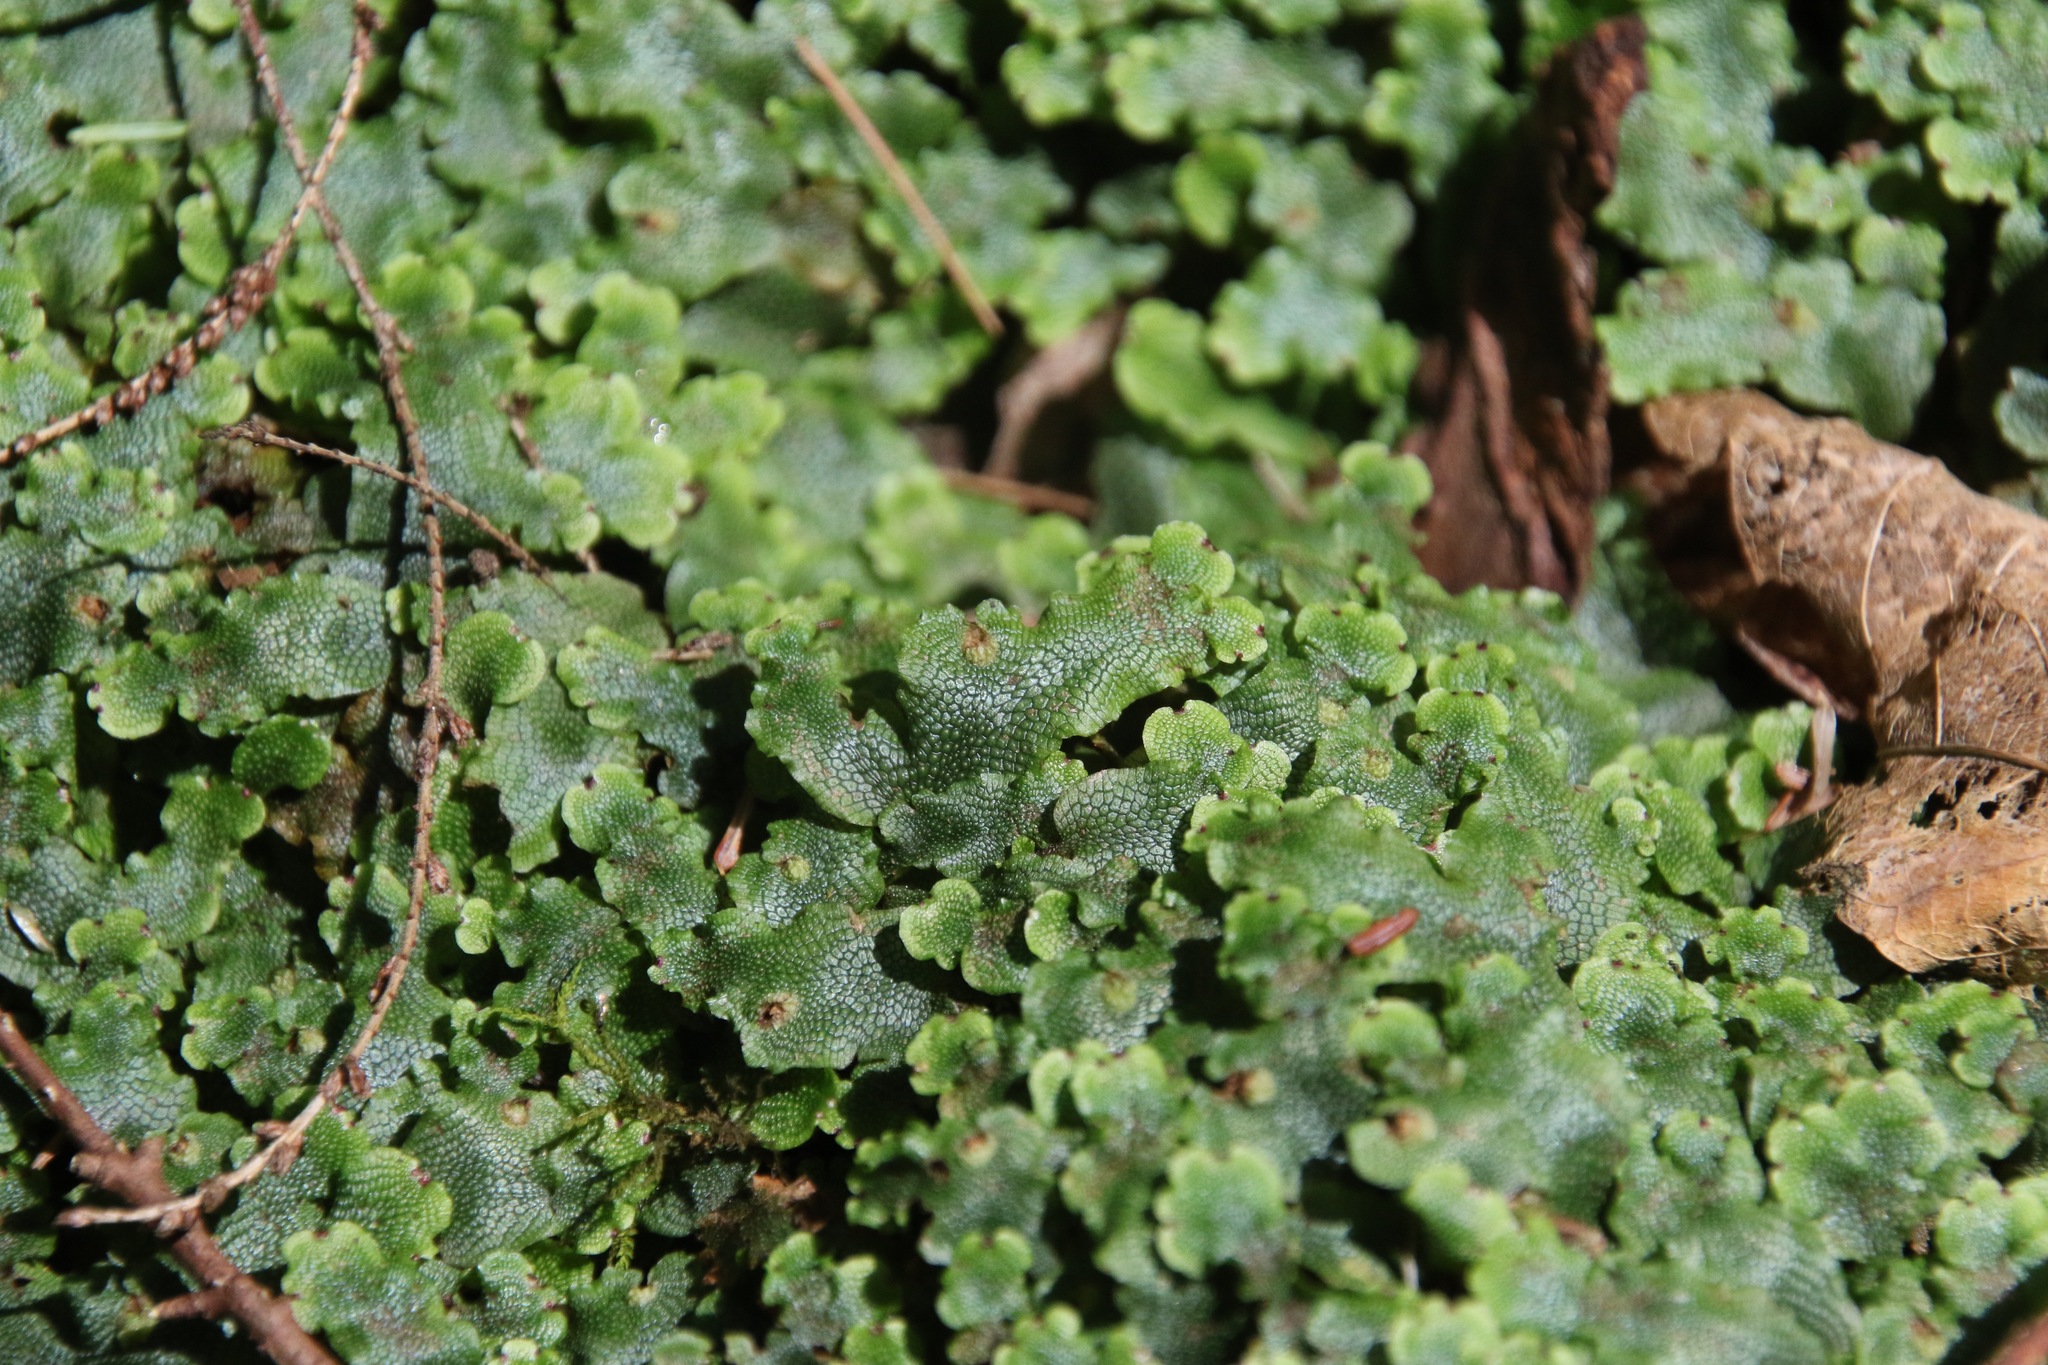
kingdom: Plantae
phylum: Marchantiophyta
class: Marchantiopsida
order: Marchantiales
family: Conocephalaceae
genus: Conocephalum
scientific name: Conocephalum salebrosum
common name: Cat-tongue liverwort
